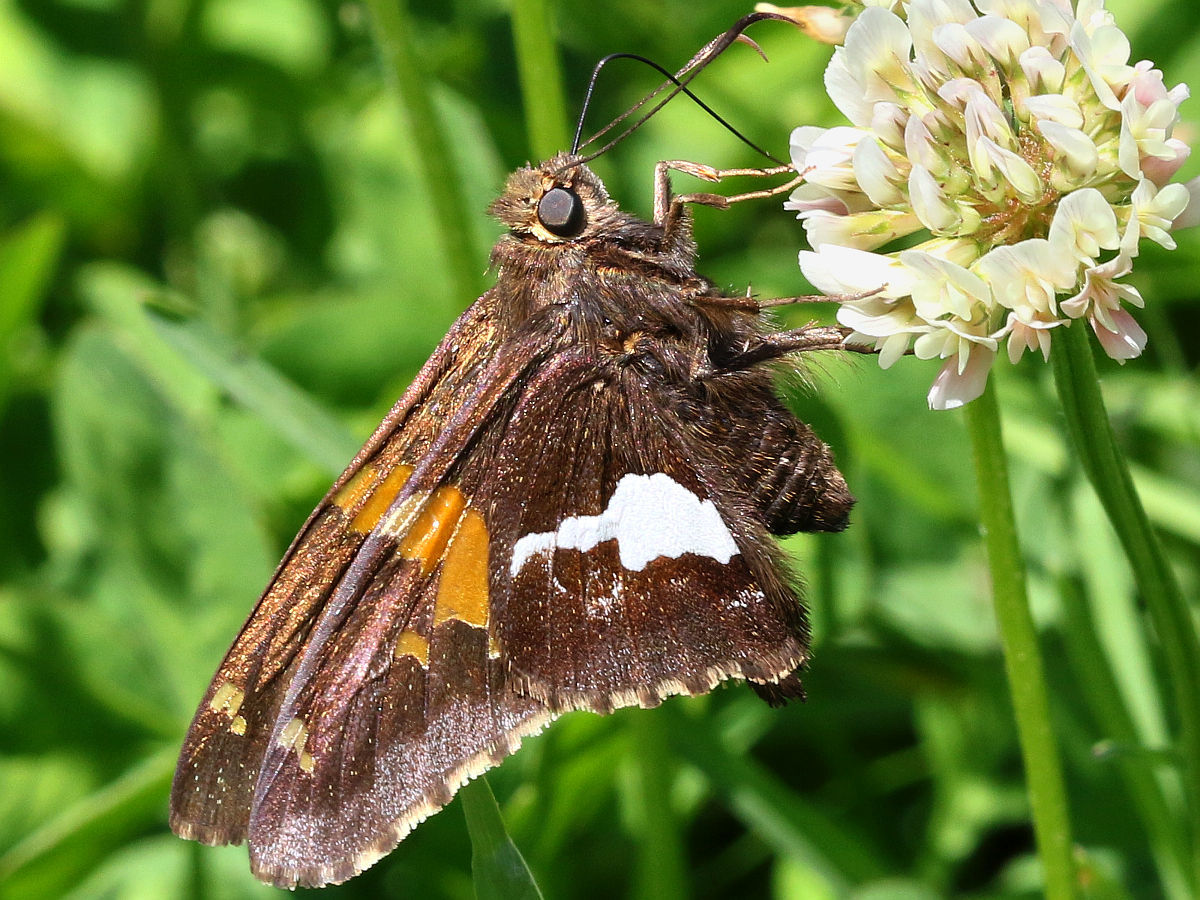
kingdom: Animalia
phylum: Arthropoda
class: Insecta
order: Lepidoptera
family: Hesperiidae
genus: Epargyreus
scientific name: Epargyreus clarus
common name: Silver-spotted skipper
